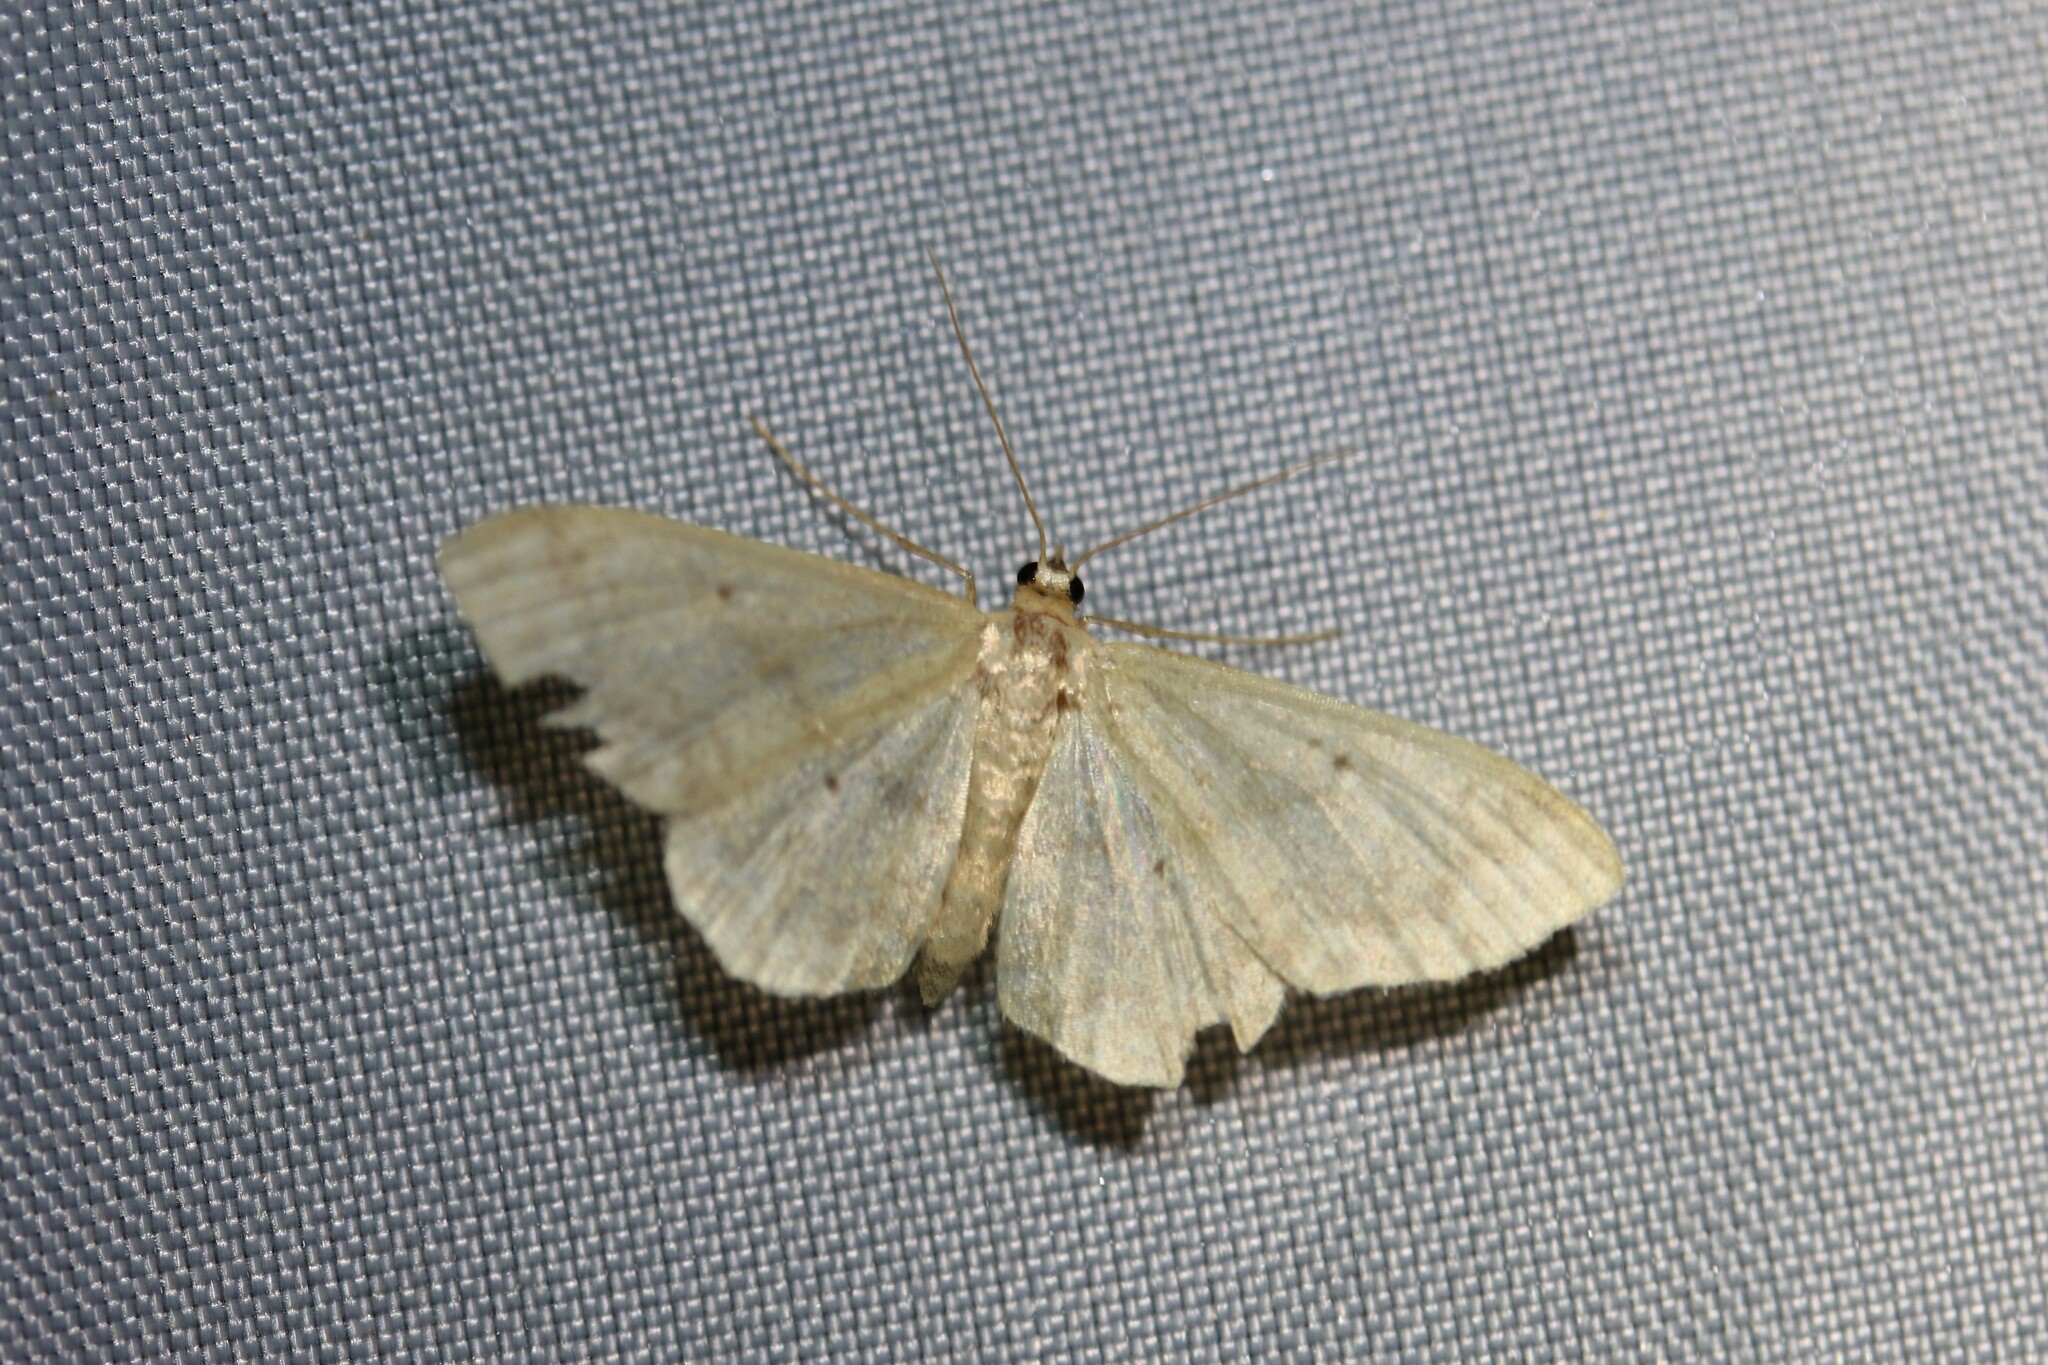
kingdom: Animalia
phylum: Arthropoda
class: Insecta
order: Lepidoptera
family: Geometridae
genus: Idaea
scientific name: Idaea biselata
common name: Small fan-footed wave
